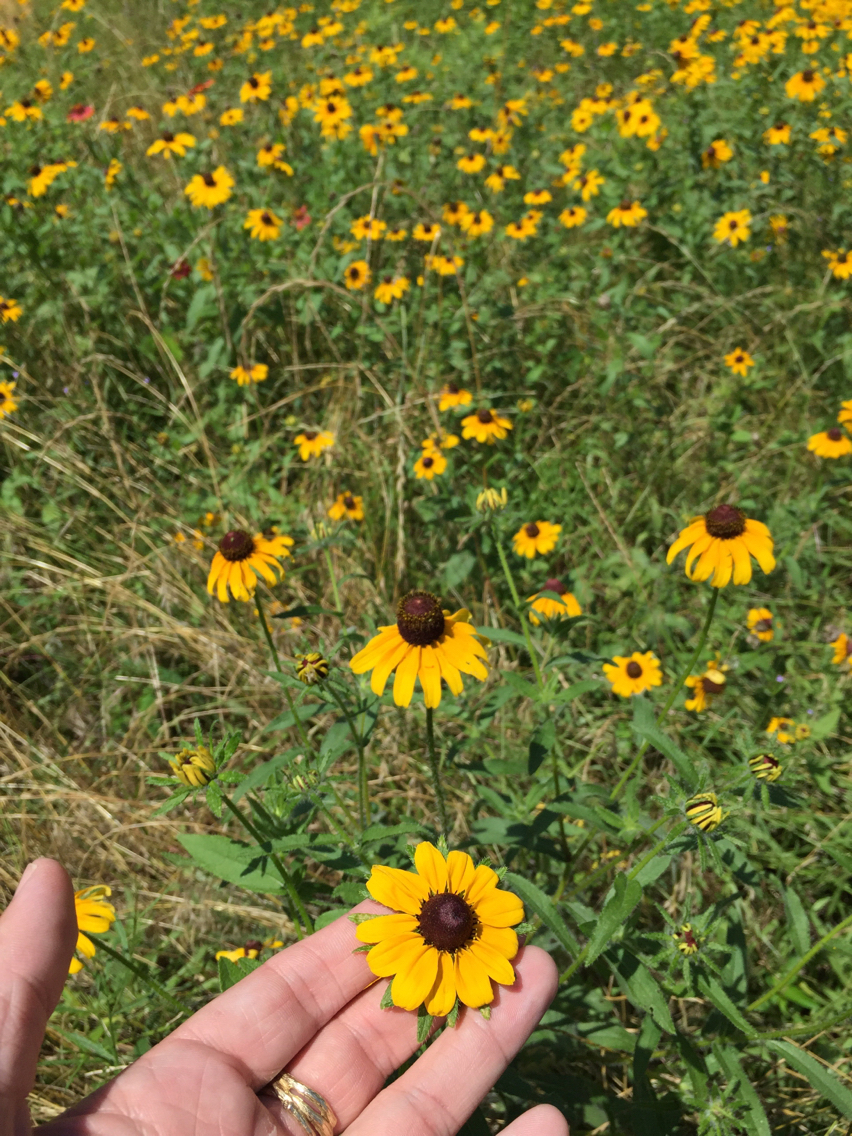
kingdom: Plantae
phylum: Tracheophyta
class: Magnoliopsida
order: Asterales
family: Asteraceae
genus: Rudbeckia
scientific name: Rudbeckia hirta
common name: Black-eyed-susan
